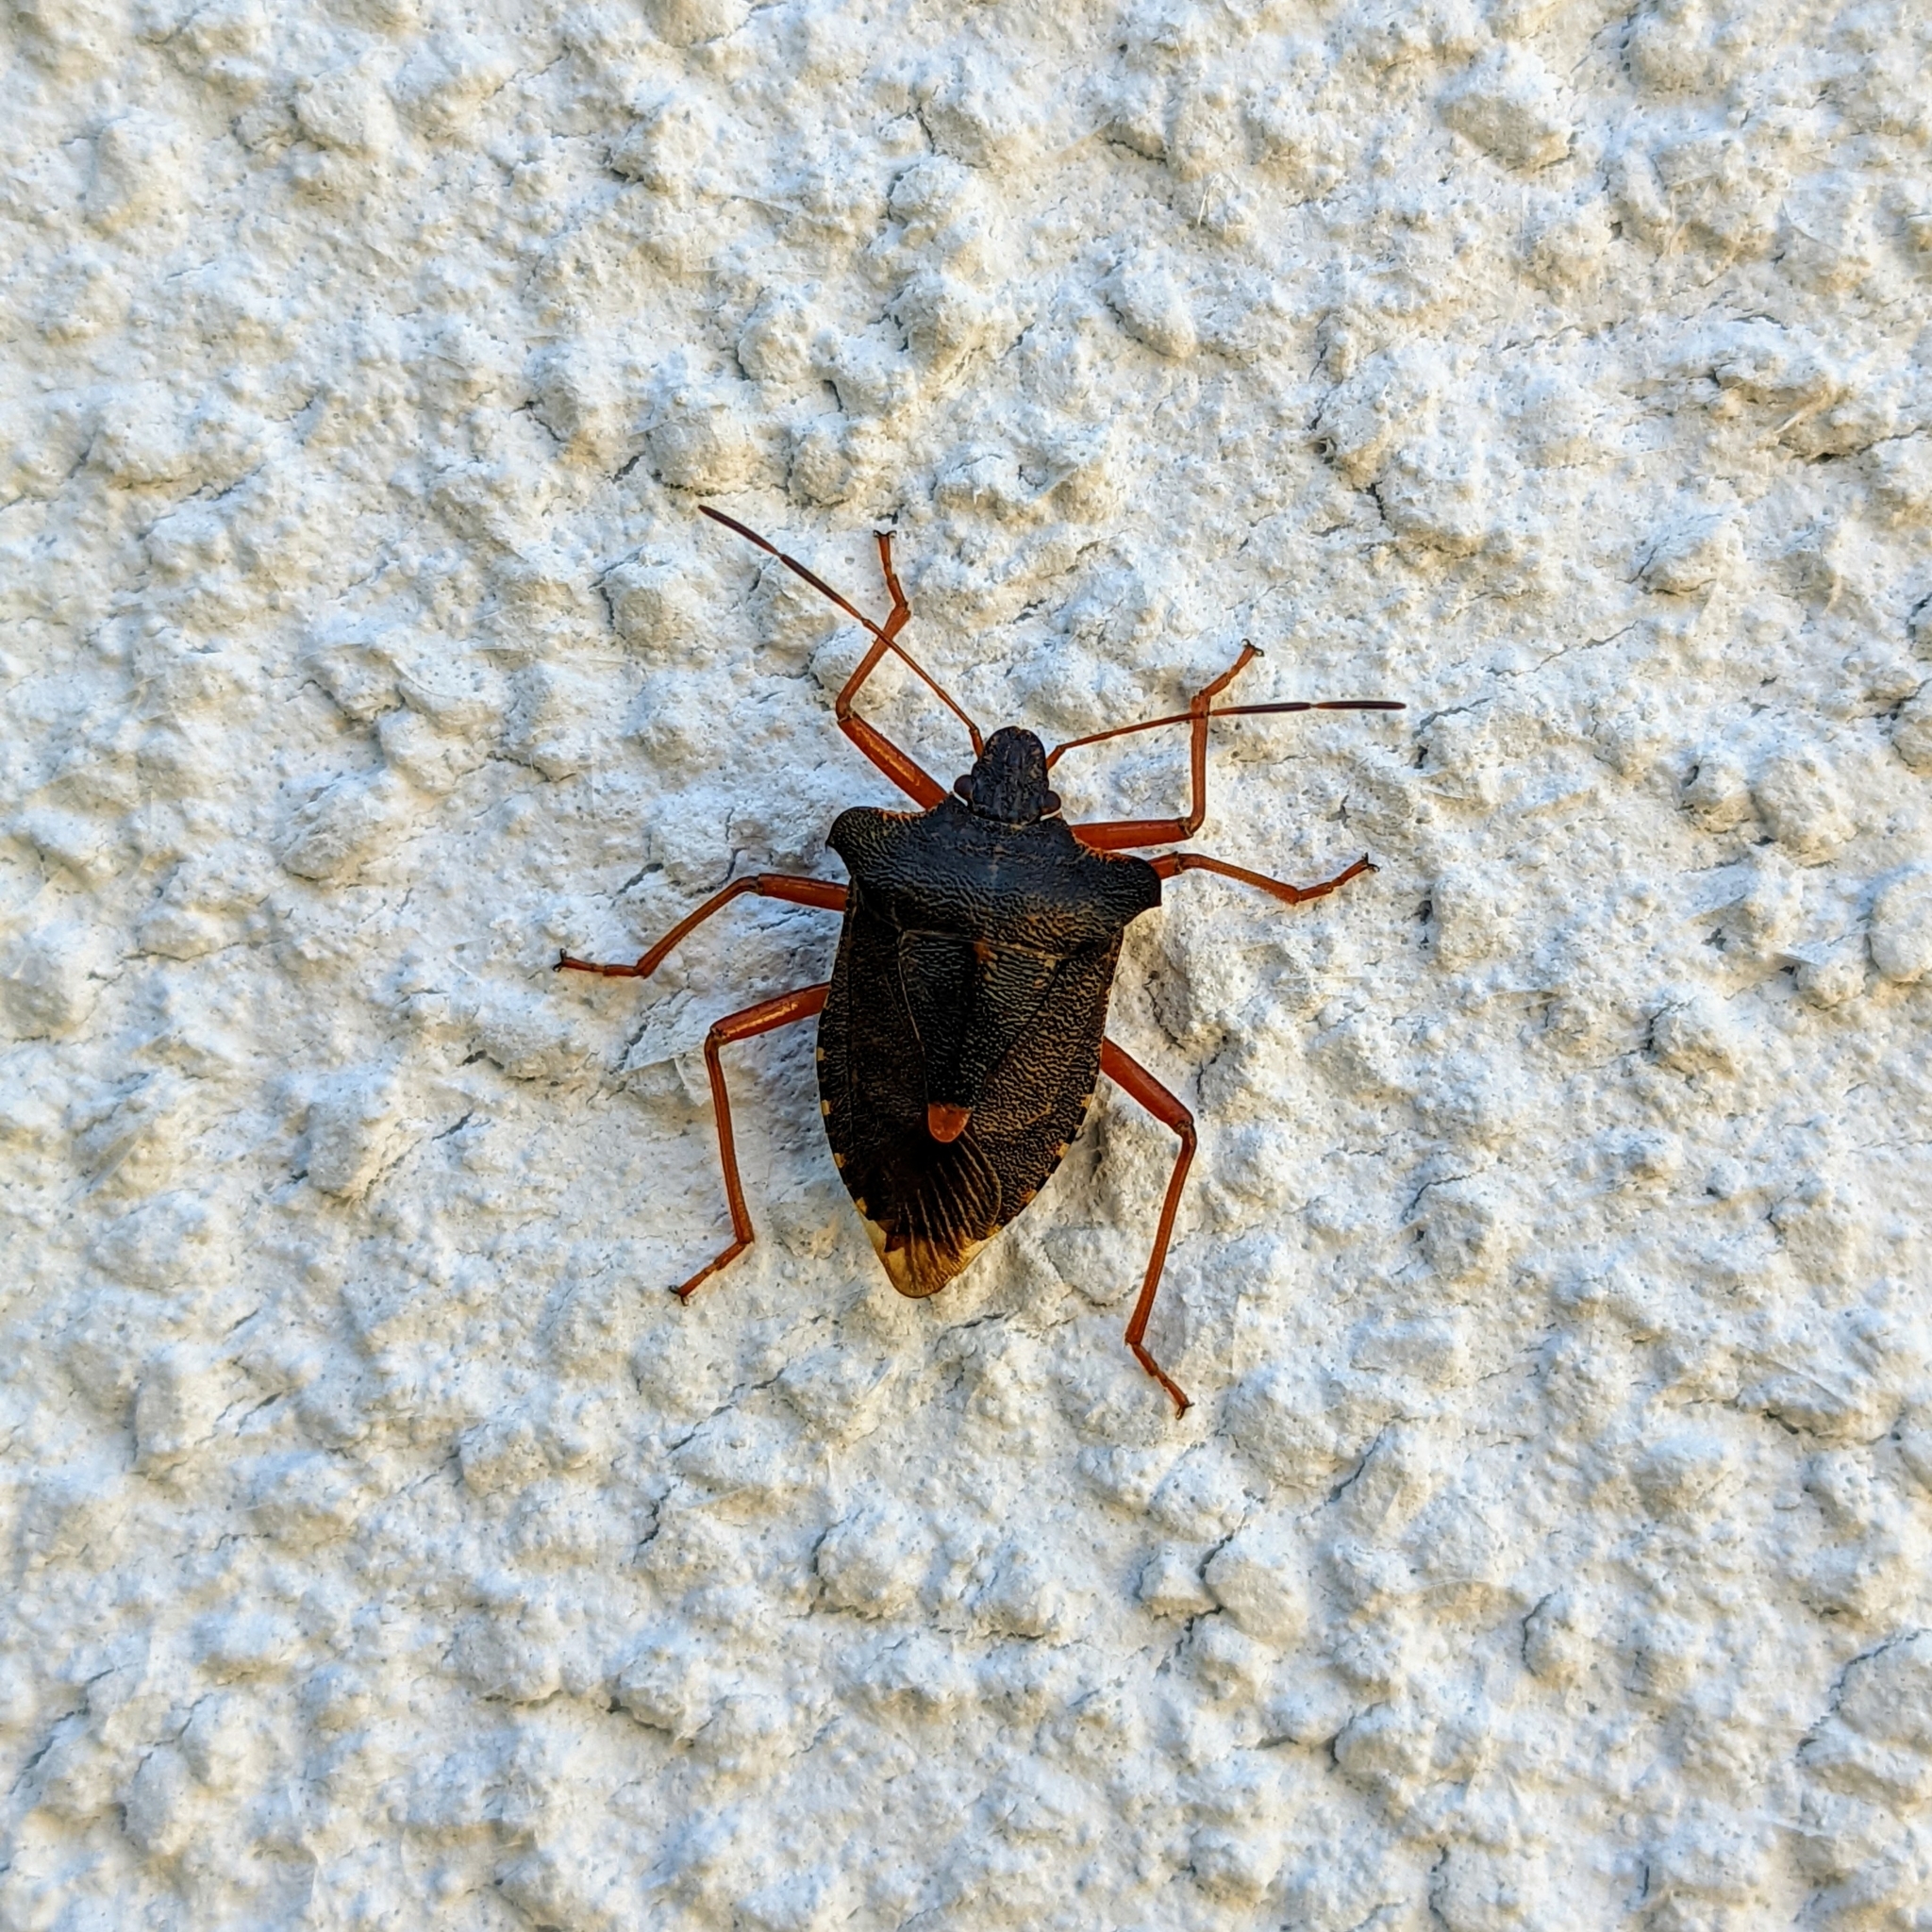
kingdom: Animalia
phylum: Arthropoda
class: Insecta
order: Hemiptera
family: Pentatomidae
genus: Pentatoma
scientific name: Pentatoma rufipes
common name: Forest bug
